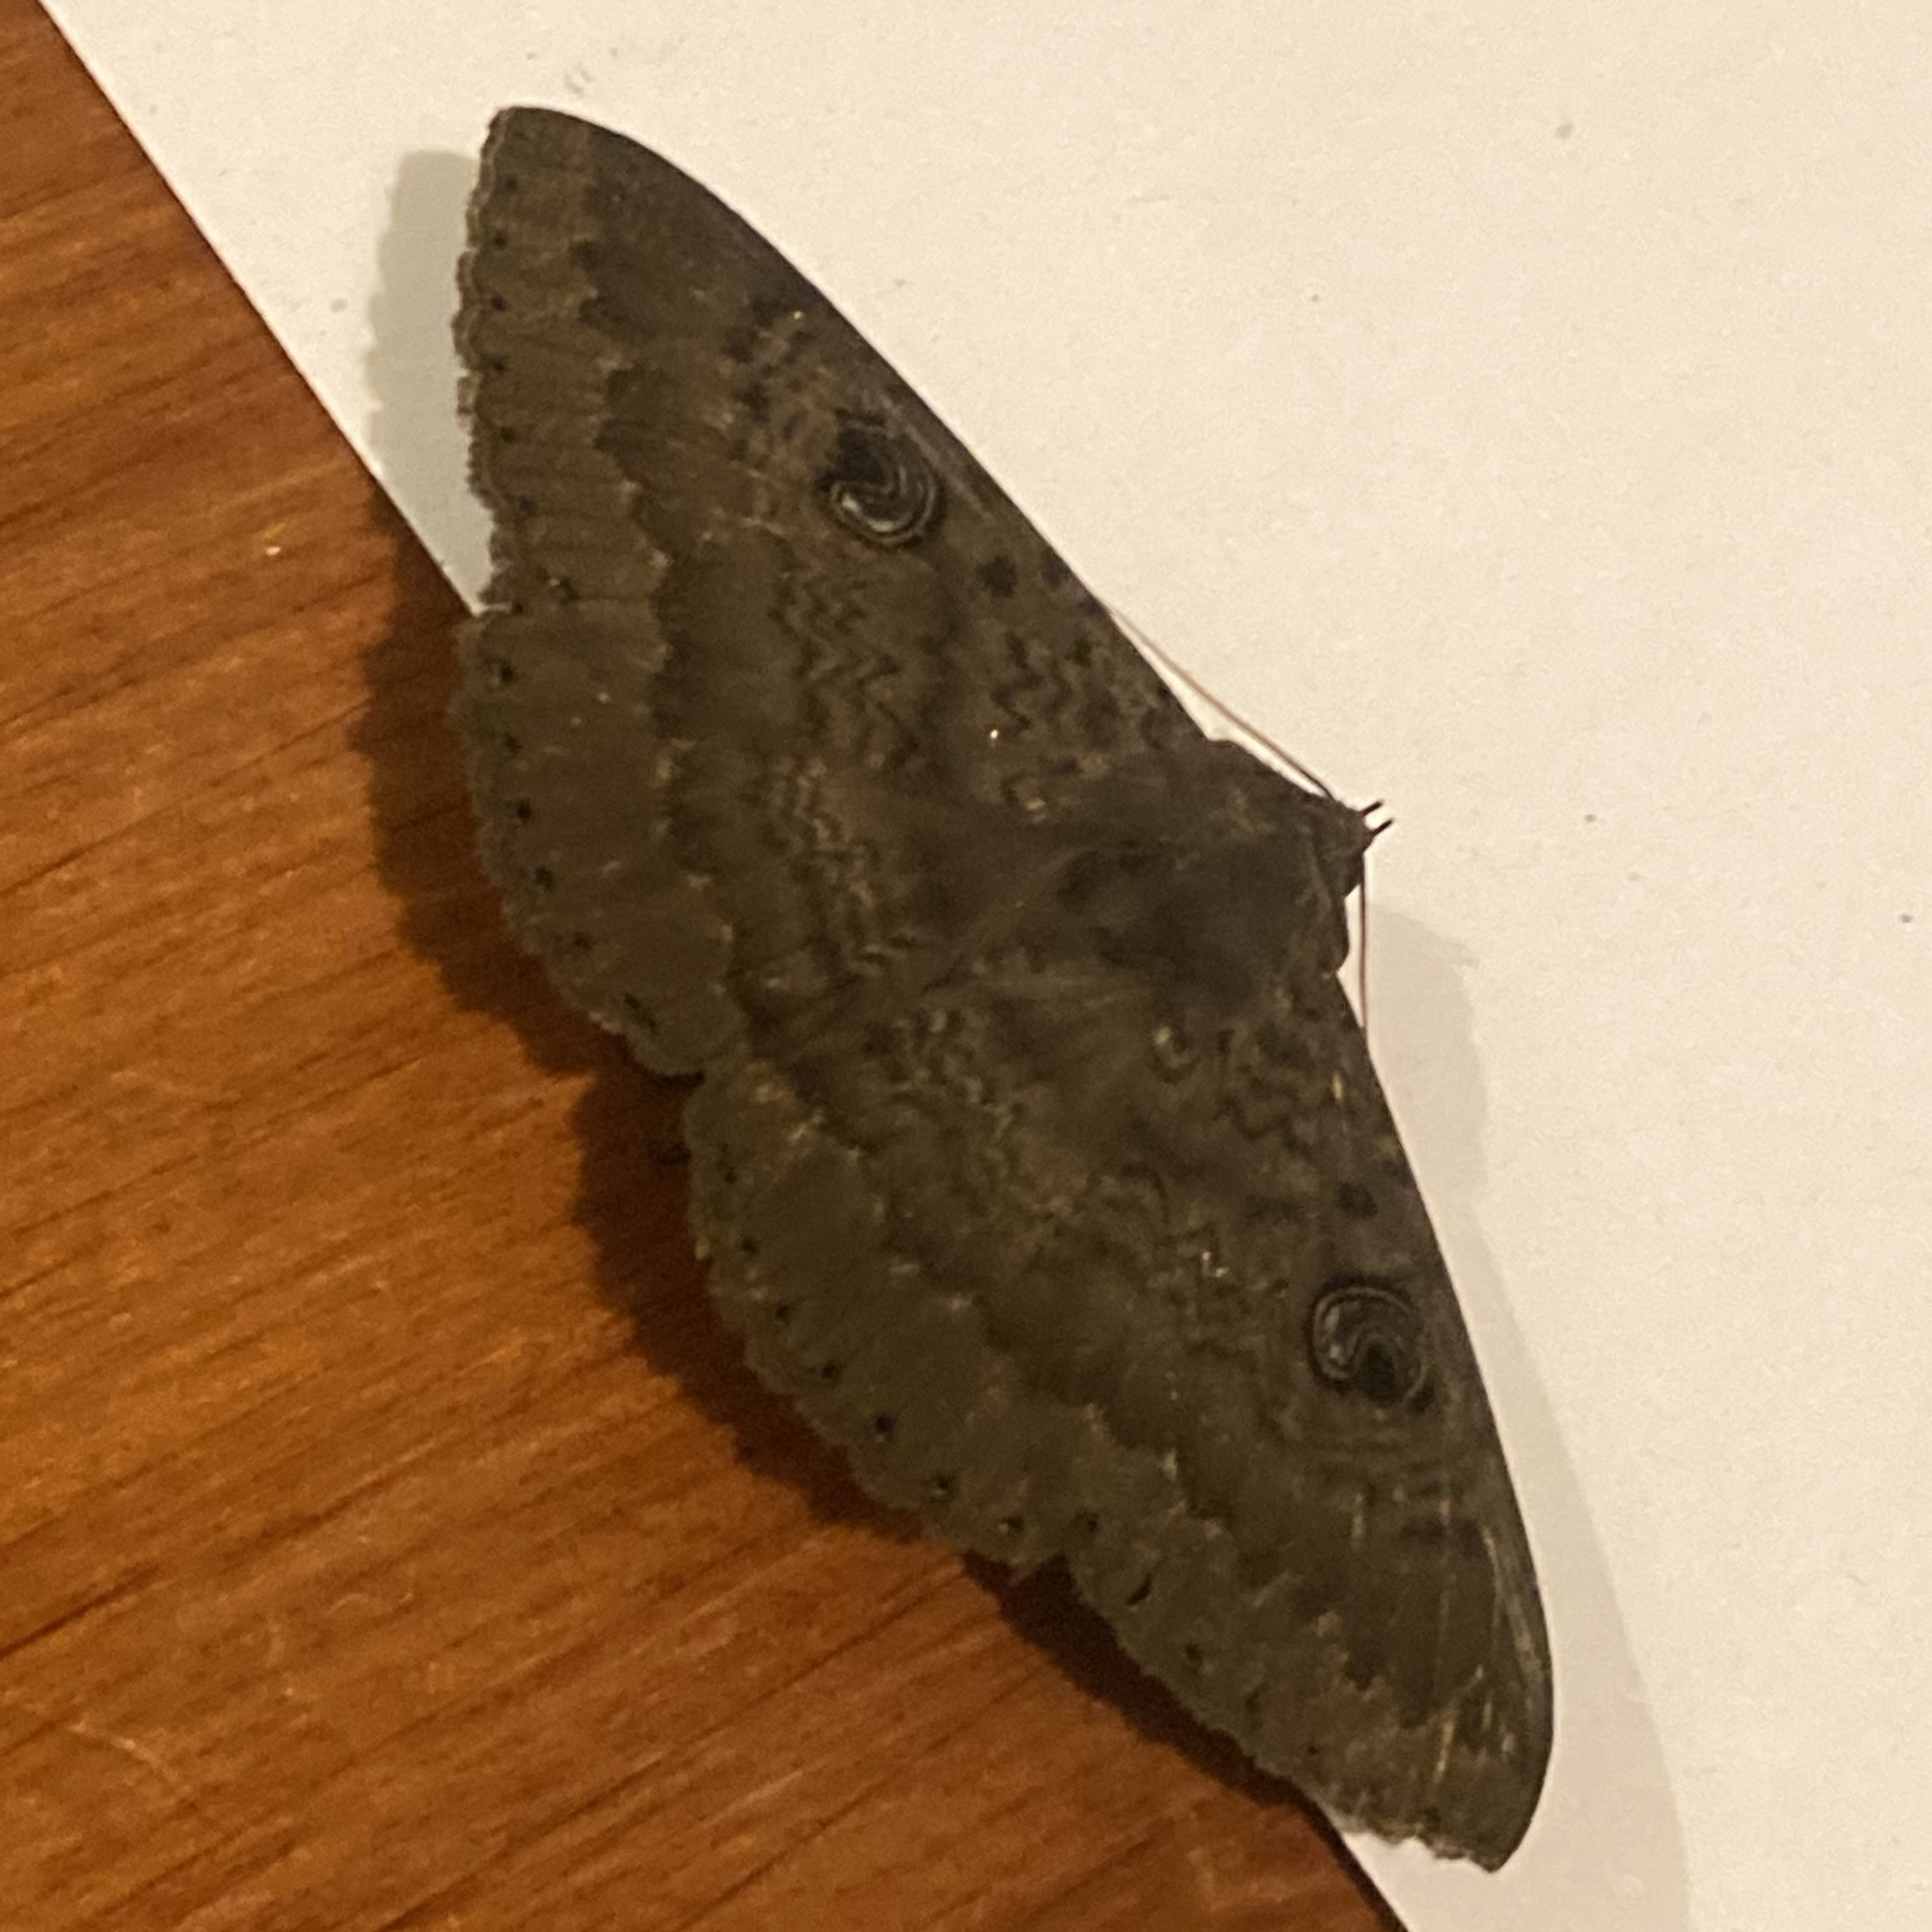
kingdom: Animalia
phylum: Arthropoda
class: Insecta
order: Lepidoptera
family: Erebidae
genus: Dasypodia
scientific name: Dasypodia cymatodes
